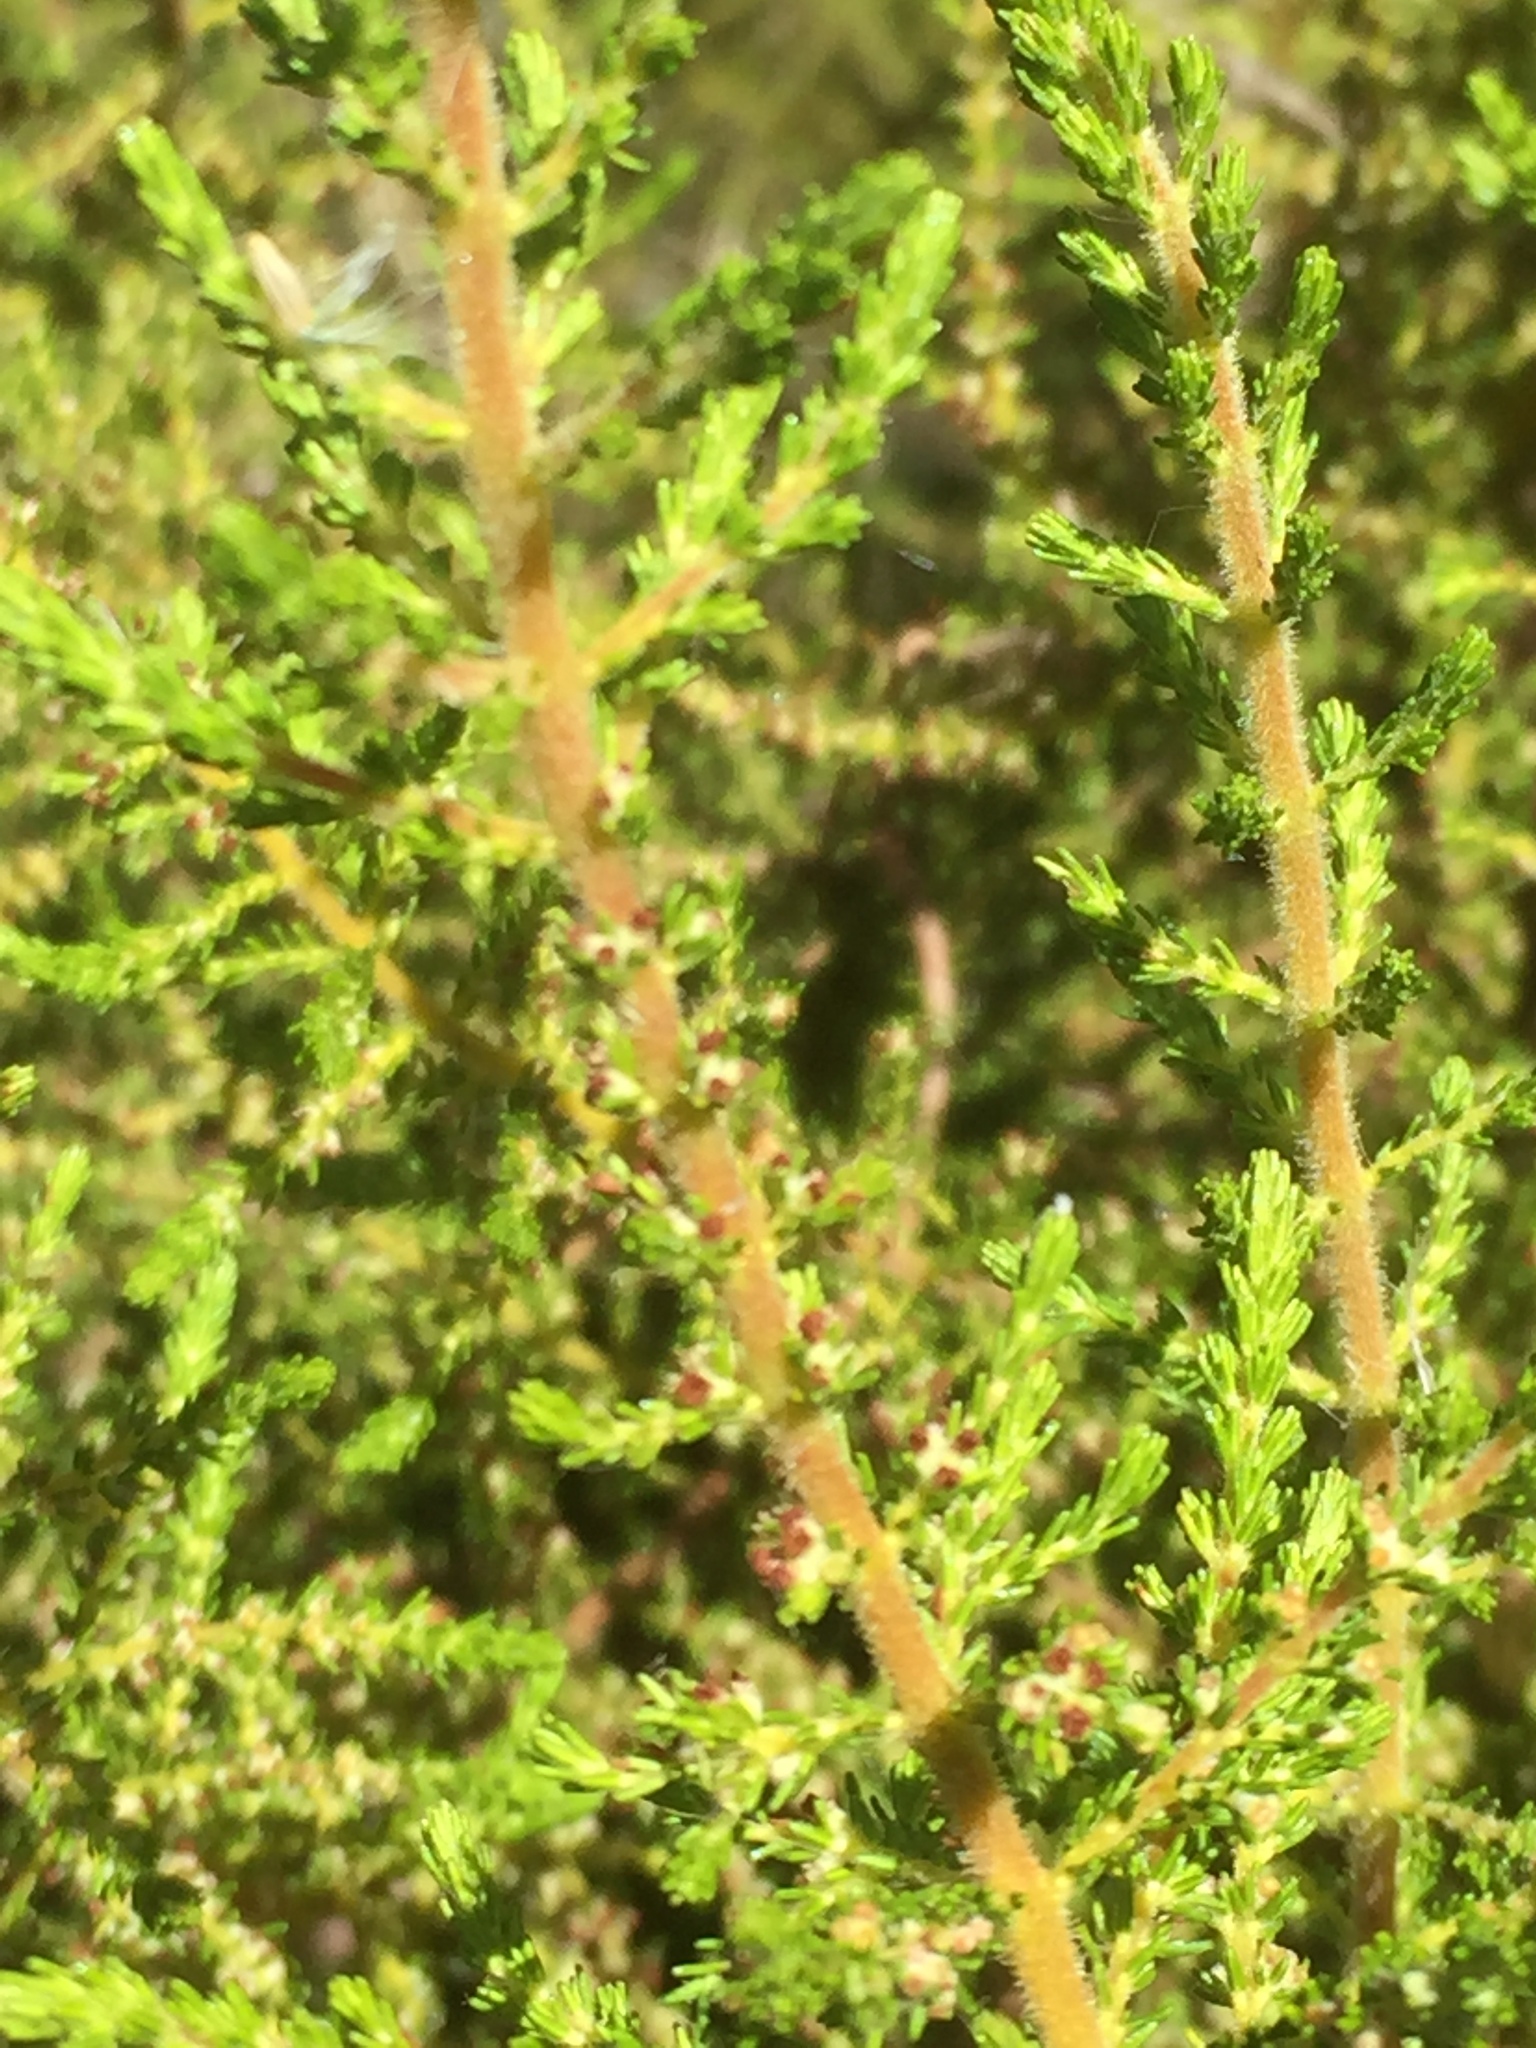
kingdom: Plantae
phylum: Tracheophyta
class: Magnoliopsida
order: Ericales
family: Ericaceae
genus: Erica
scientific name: Erica muscosa
